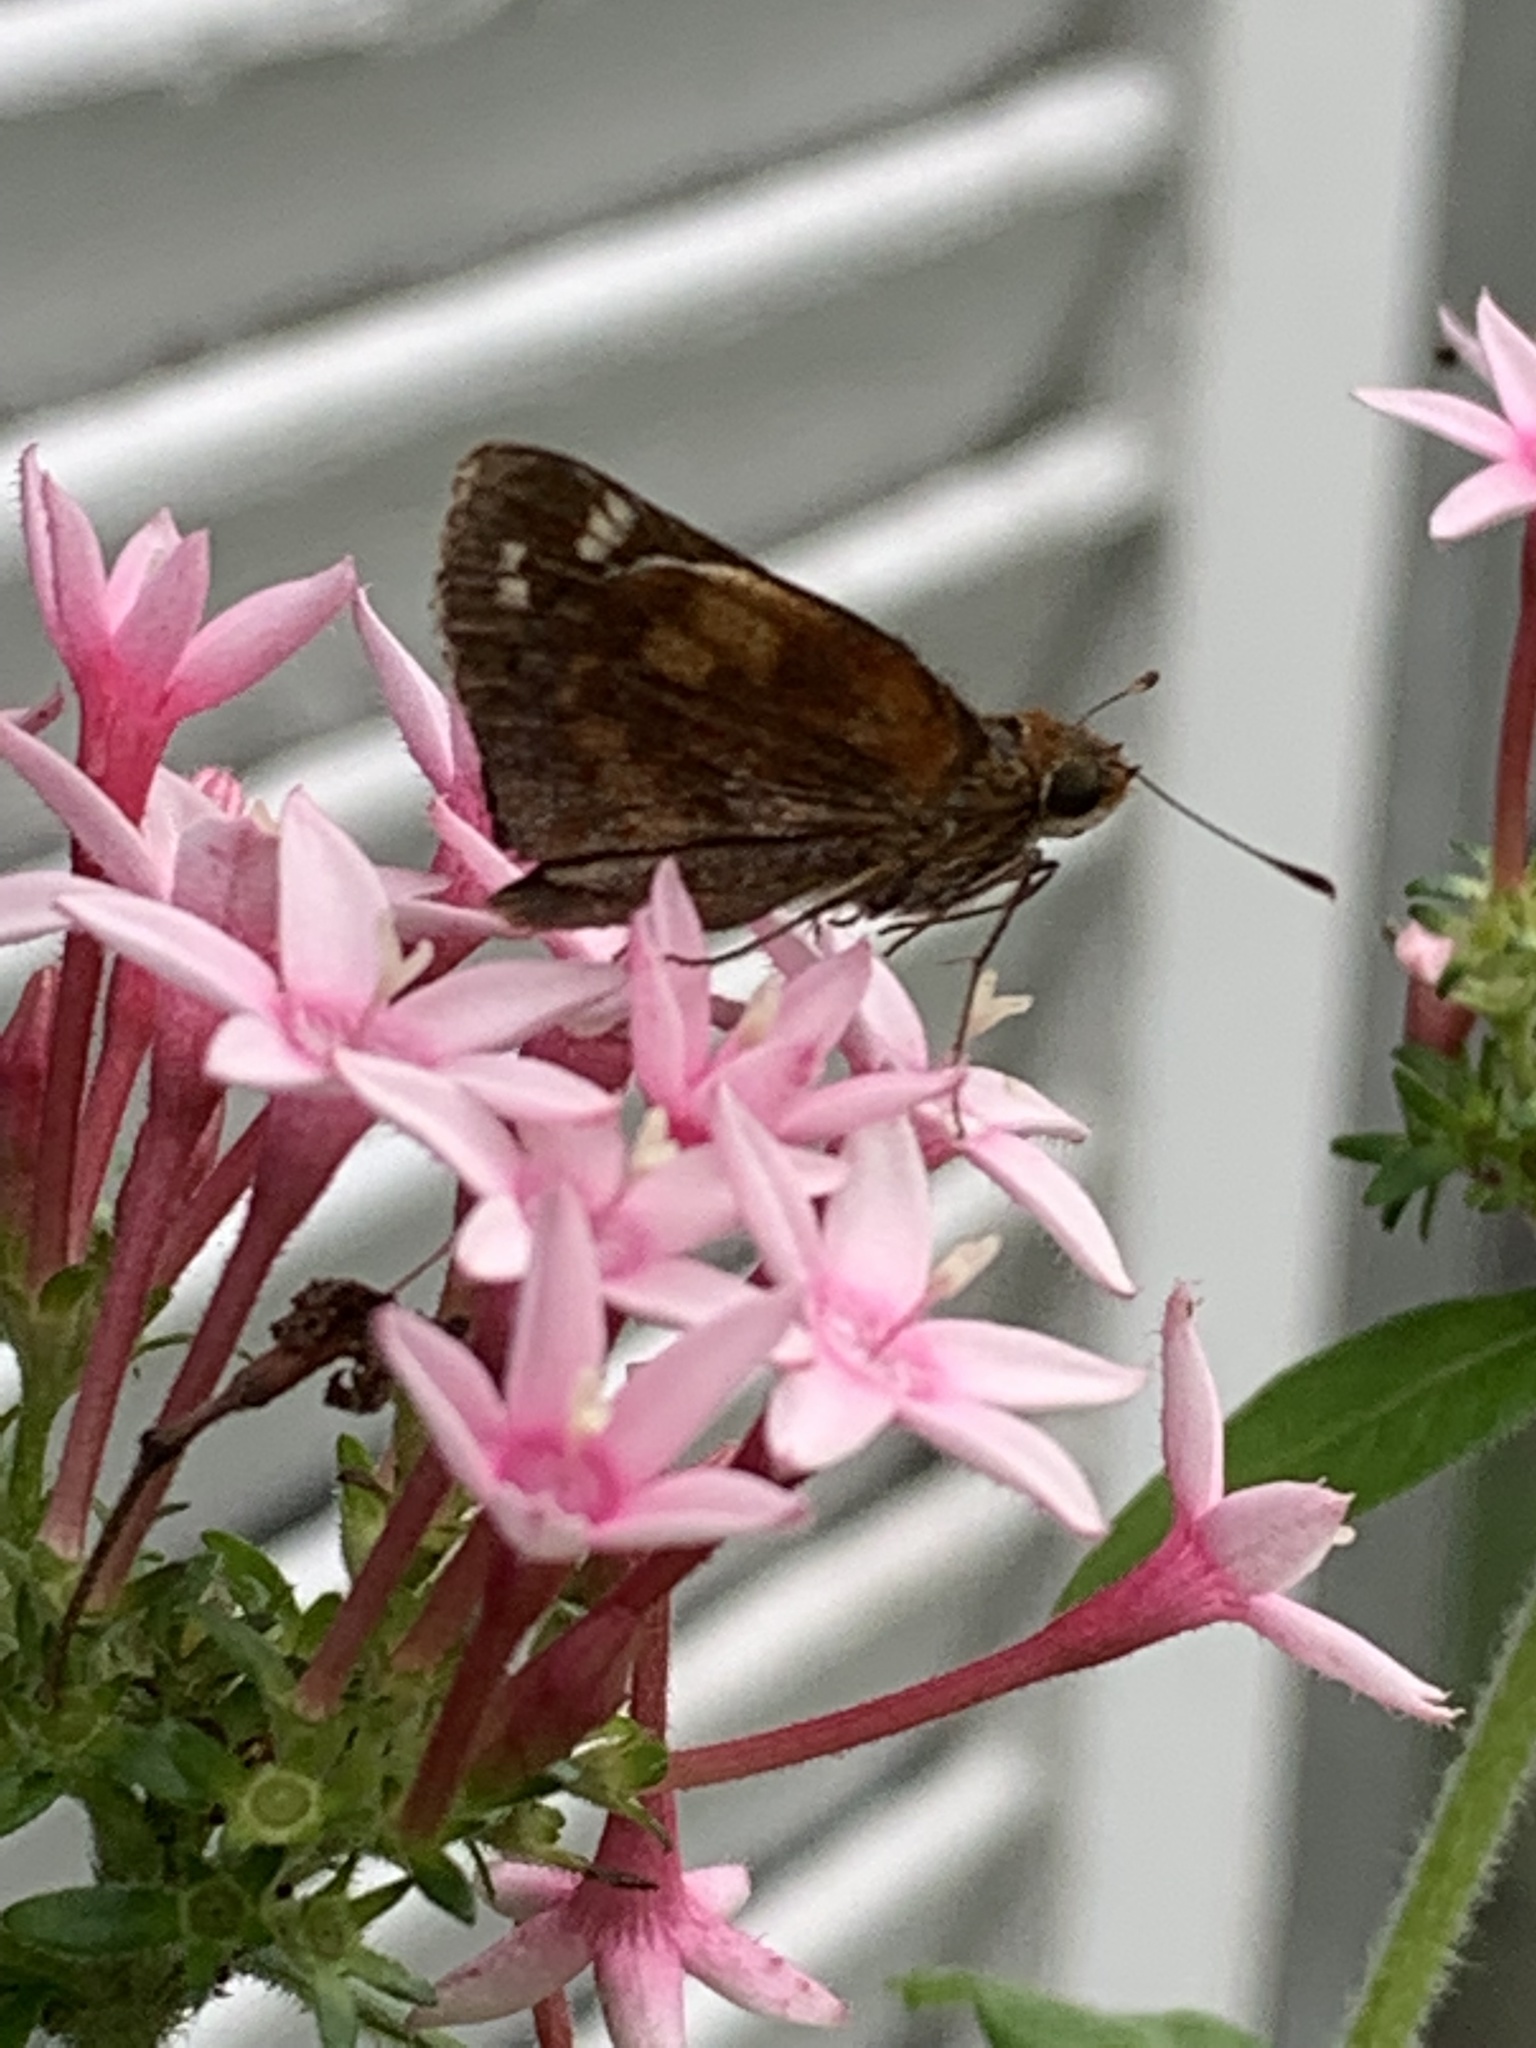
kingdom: Animalia
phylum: Arthropoda
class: Insecta
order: Lepidoptera
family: Hesperiidae
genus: Lon
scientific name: Lon zabulon
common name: Zabulon skipper
